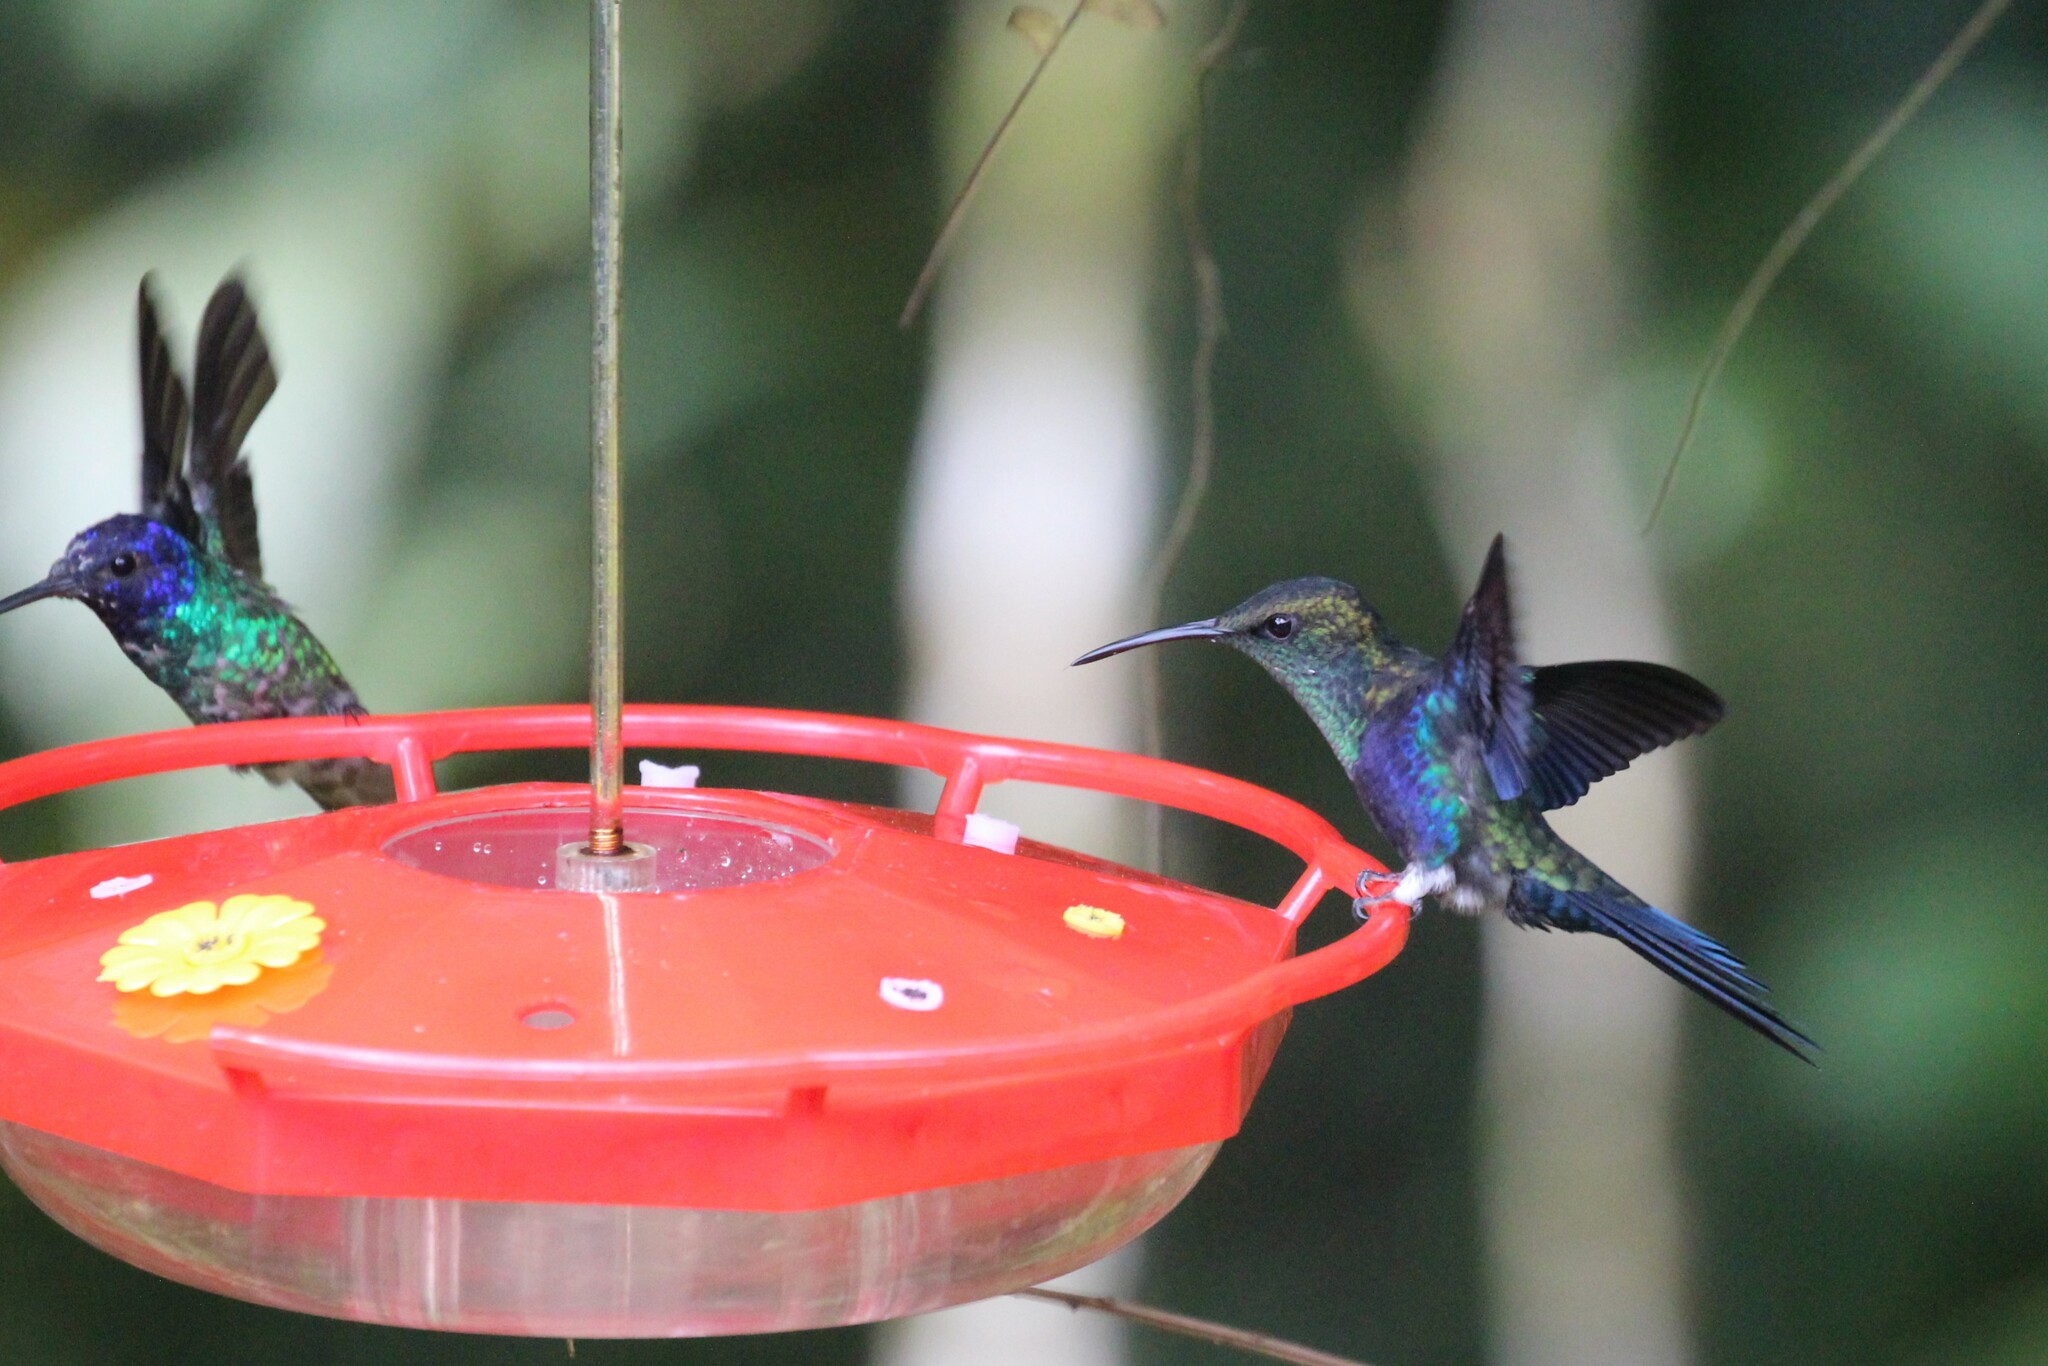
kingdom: Animalia
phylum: Chordata
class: Aves
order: Apodiformes
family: Trochilidae
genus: Thalurania
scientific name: Thalurania furcata
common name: Fork-tailed woodnymph
